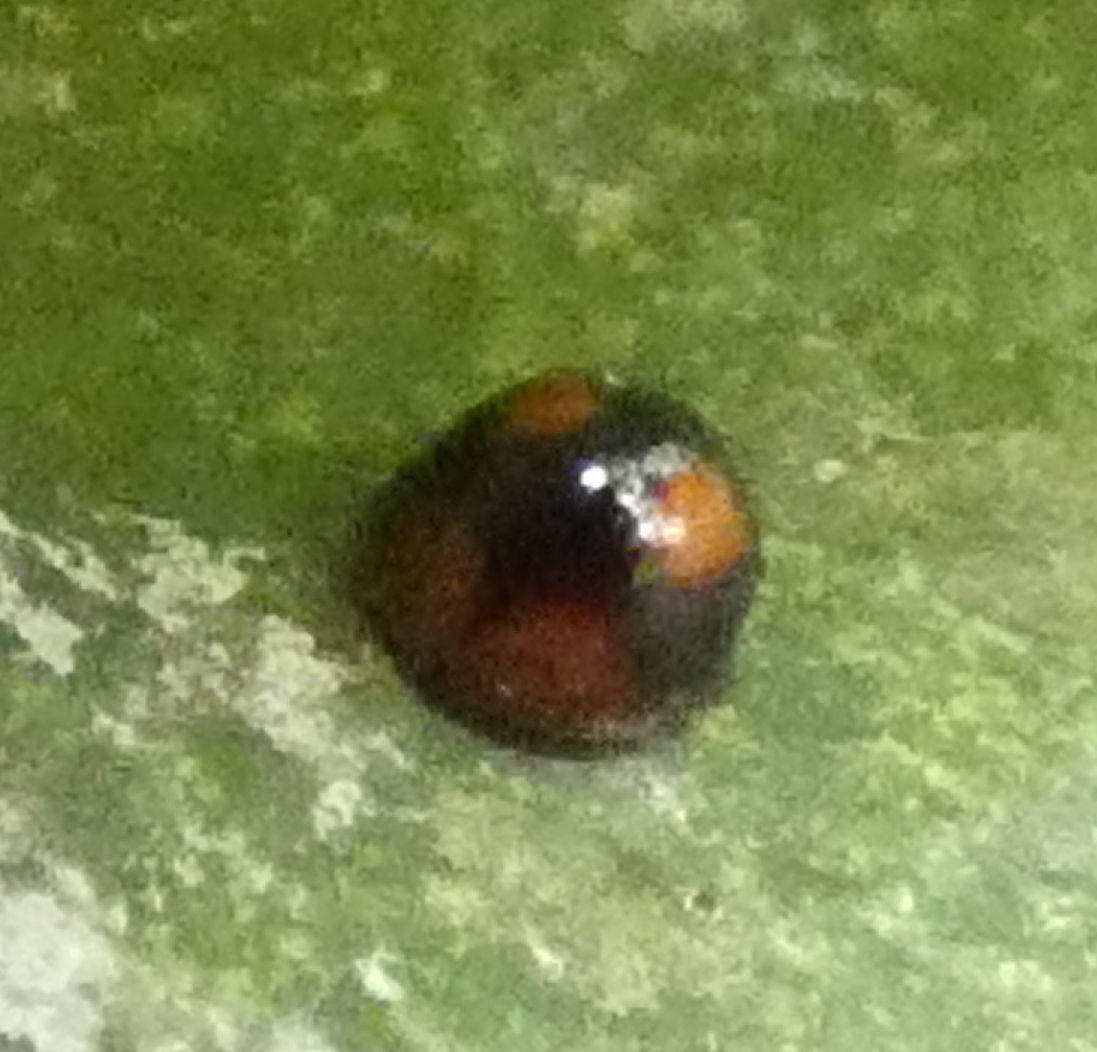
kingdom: Animalia
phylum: Arthropoda
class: Insecta
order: Coleoptera
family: Coccinellidae
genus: Cryptognatha
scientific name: Cryptognatha
